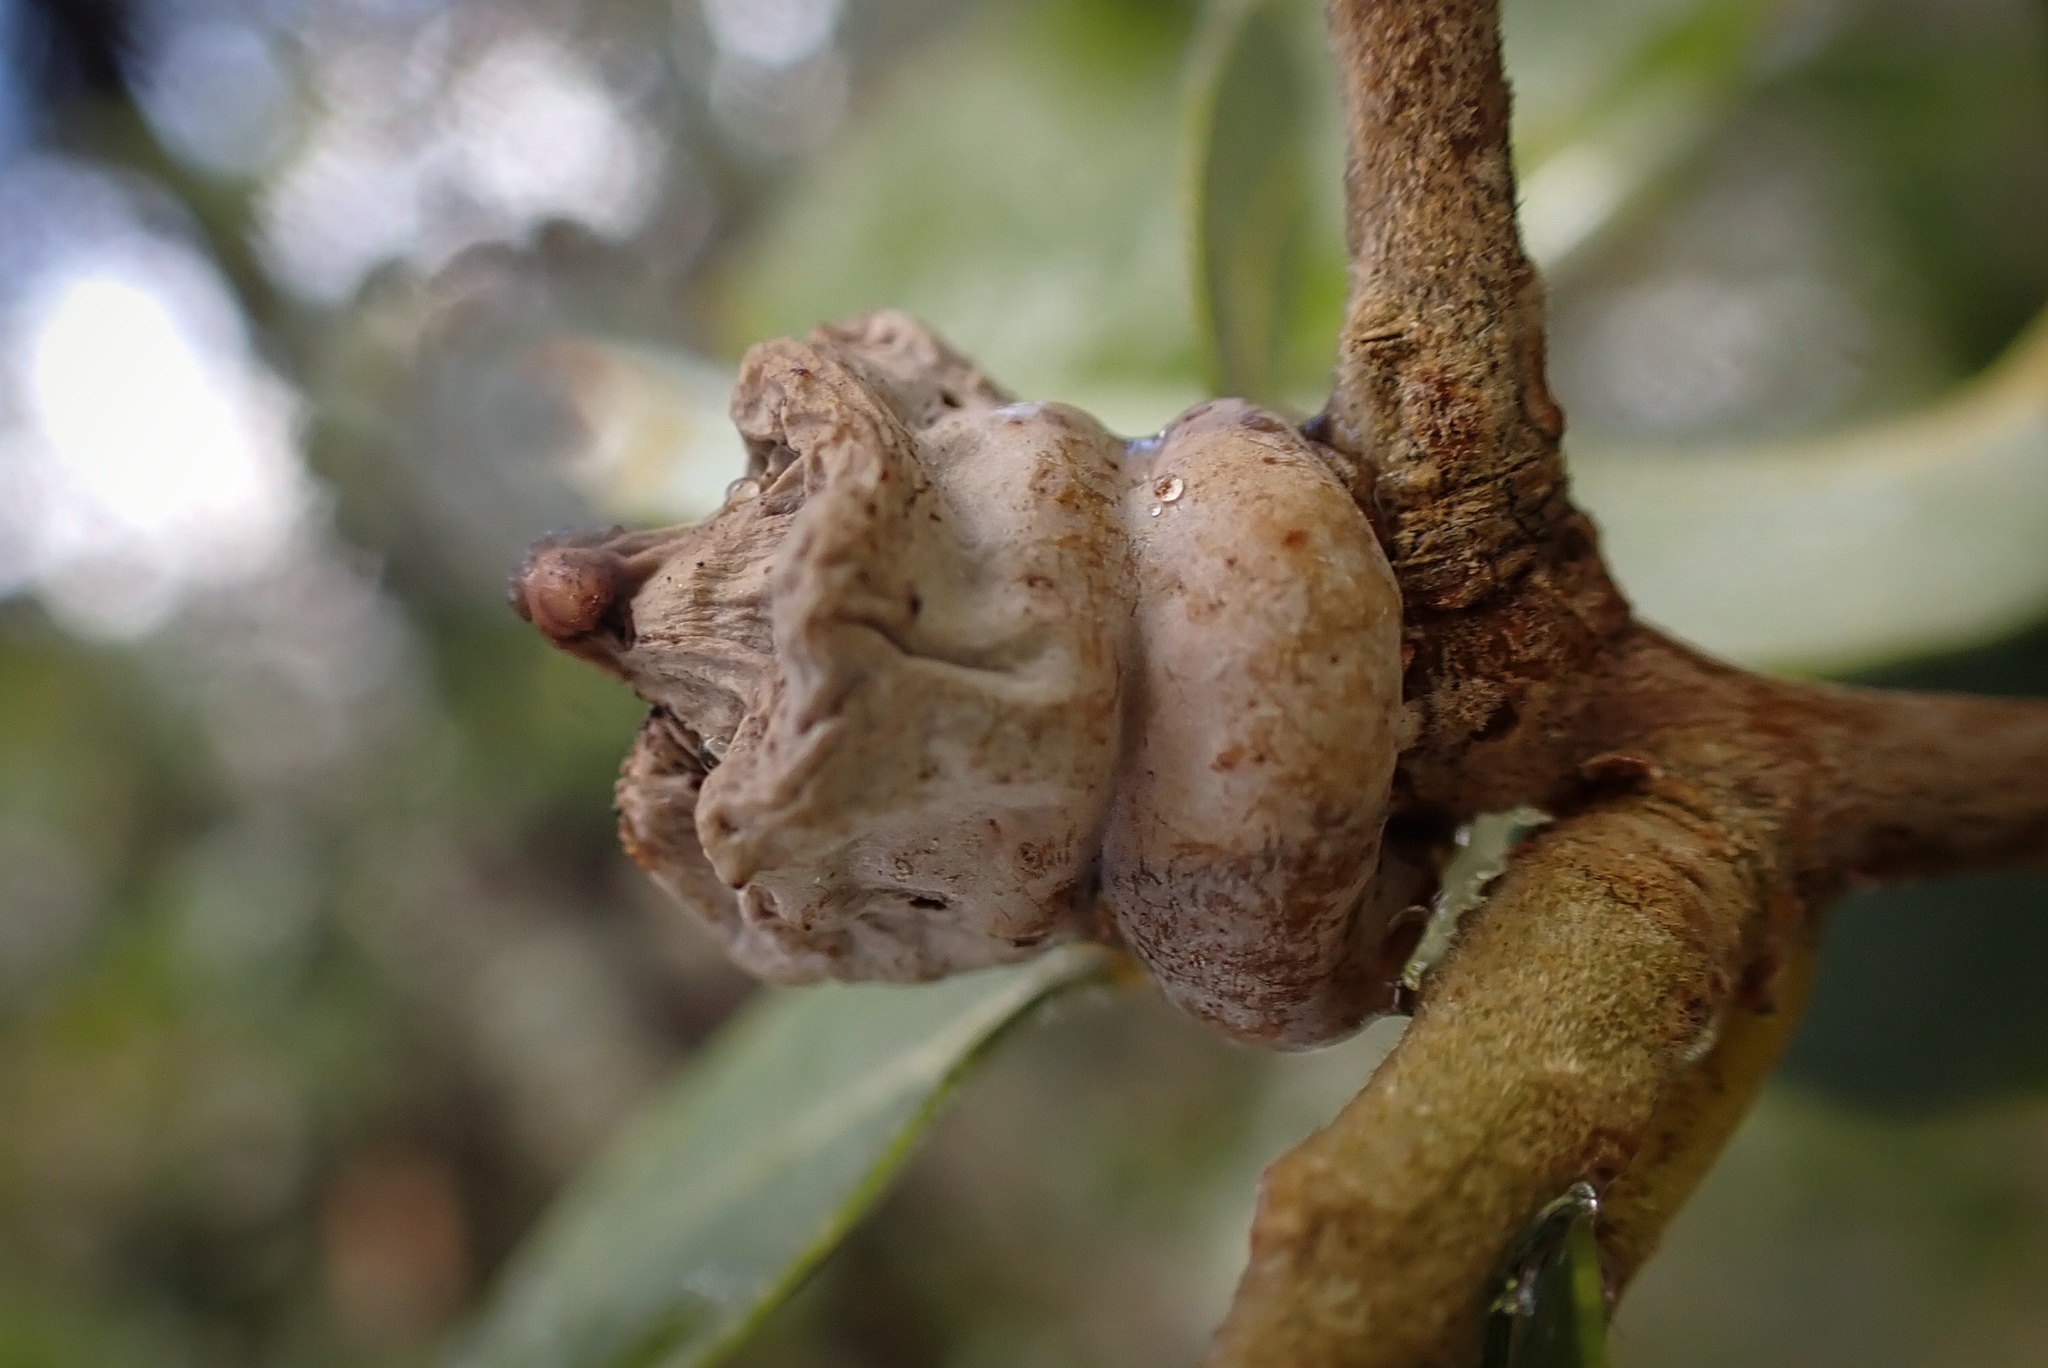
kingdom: Animalia
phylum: Arthropoda
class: Insecta
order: Hymenoptera
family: Cynipidae
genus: Heteroecus
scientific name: Heteroecus
